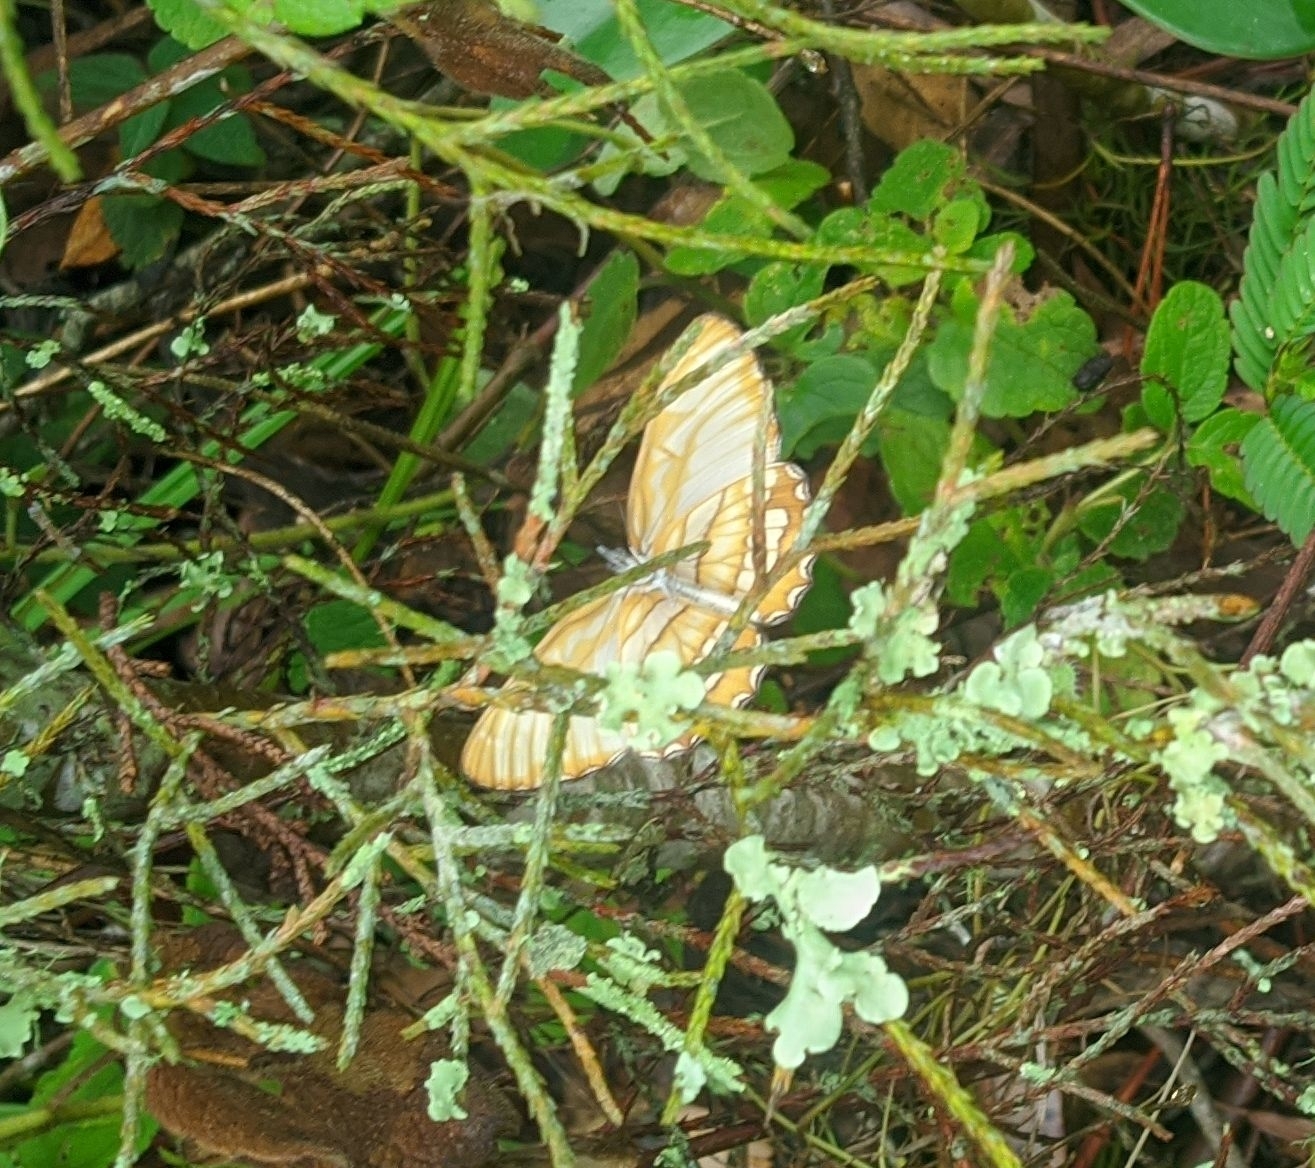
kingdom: Animalia
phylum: Arthropoda
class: Insecta
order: Lepidoptera
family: Nymphalidae
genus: Mestra
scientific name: Mestra hersilia
